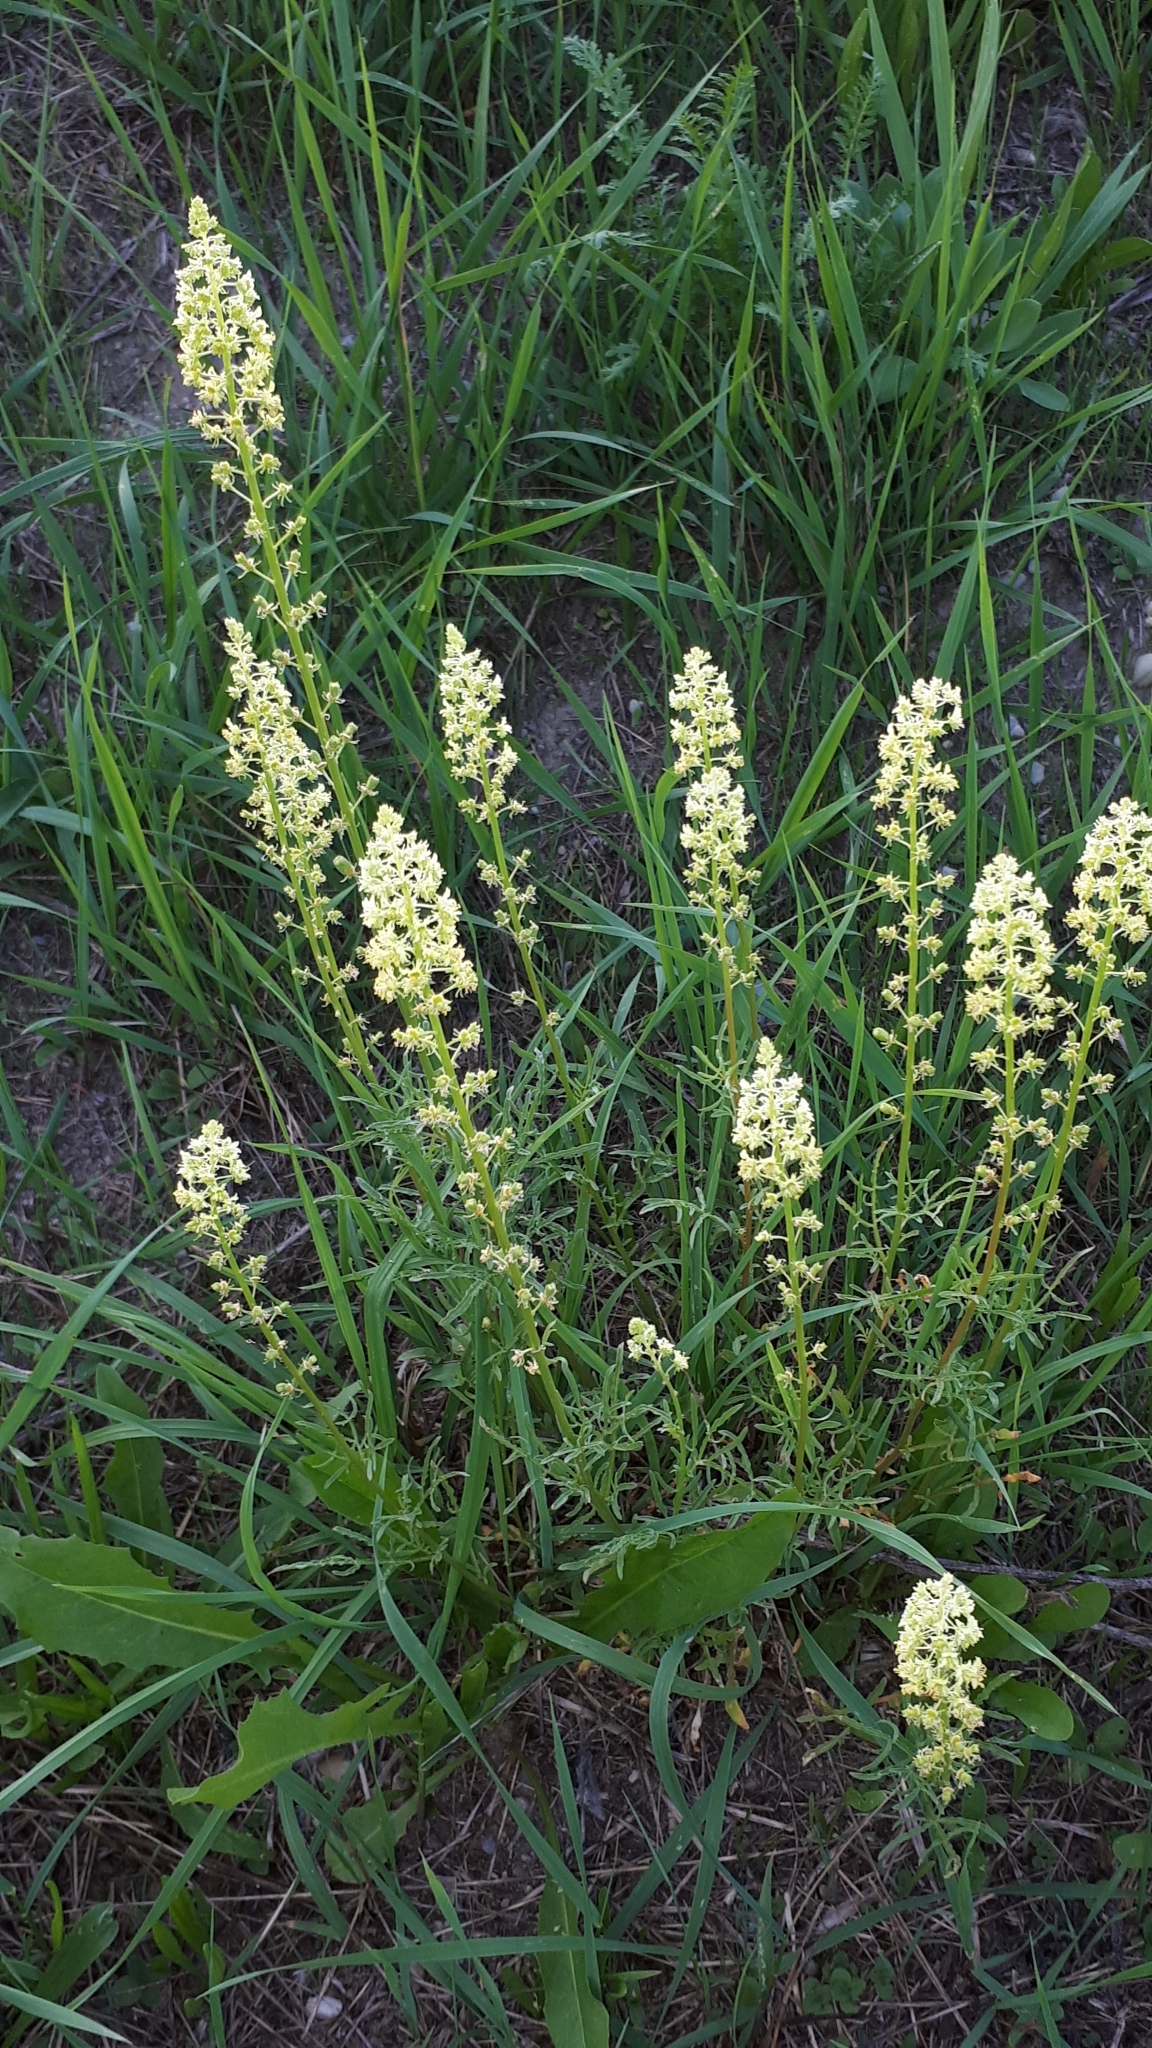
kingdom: Plantae
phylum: Tracheophyta
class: Magnoliopsida
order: Brassicales
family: Resedaceae
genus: Reseda
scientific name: Reseda lutea
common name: Wild mignonette
